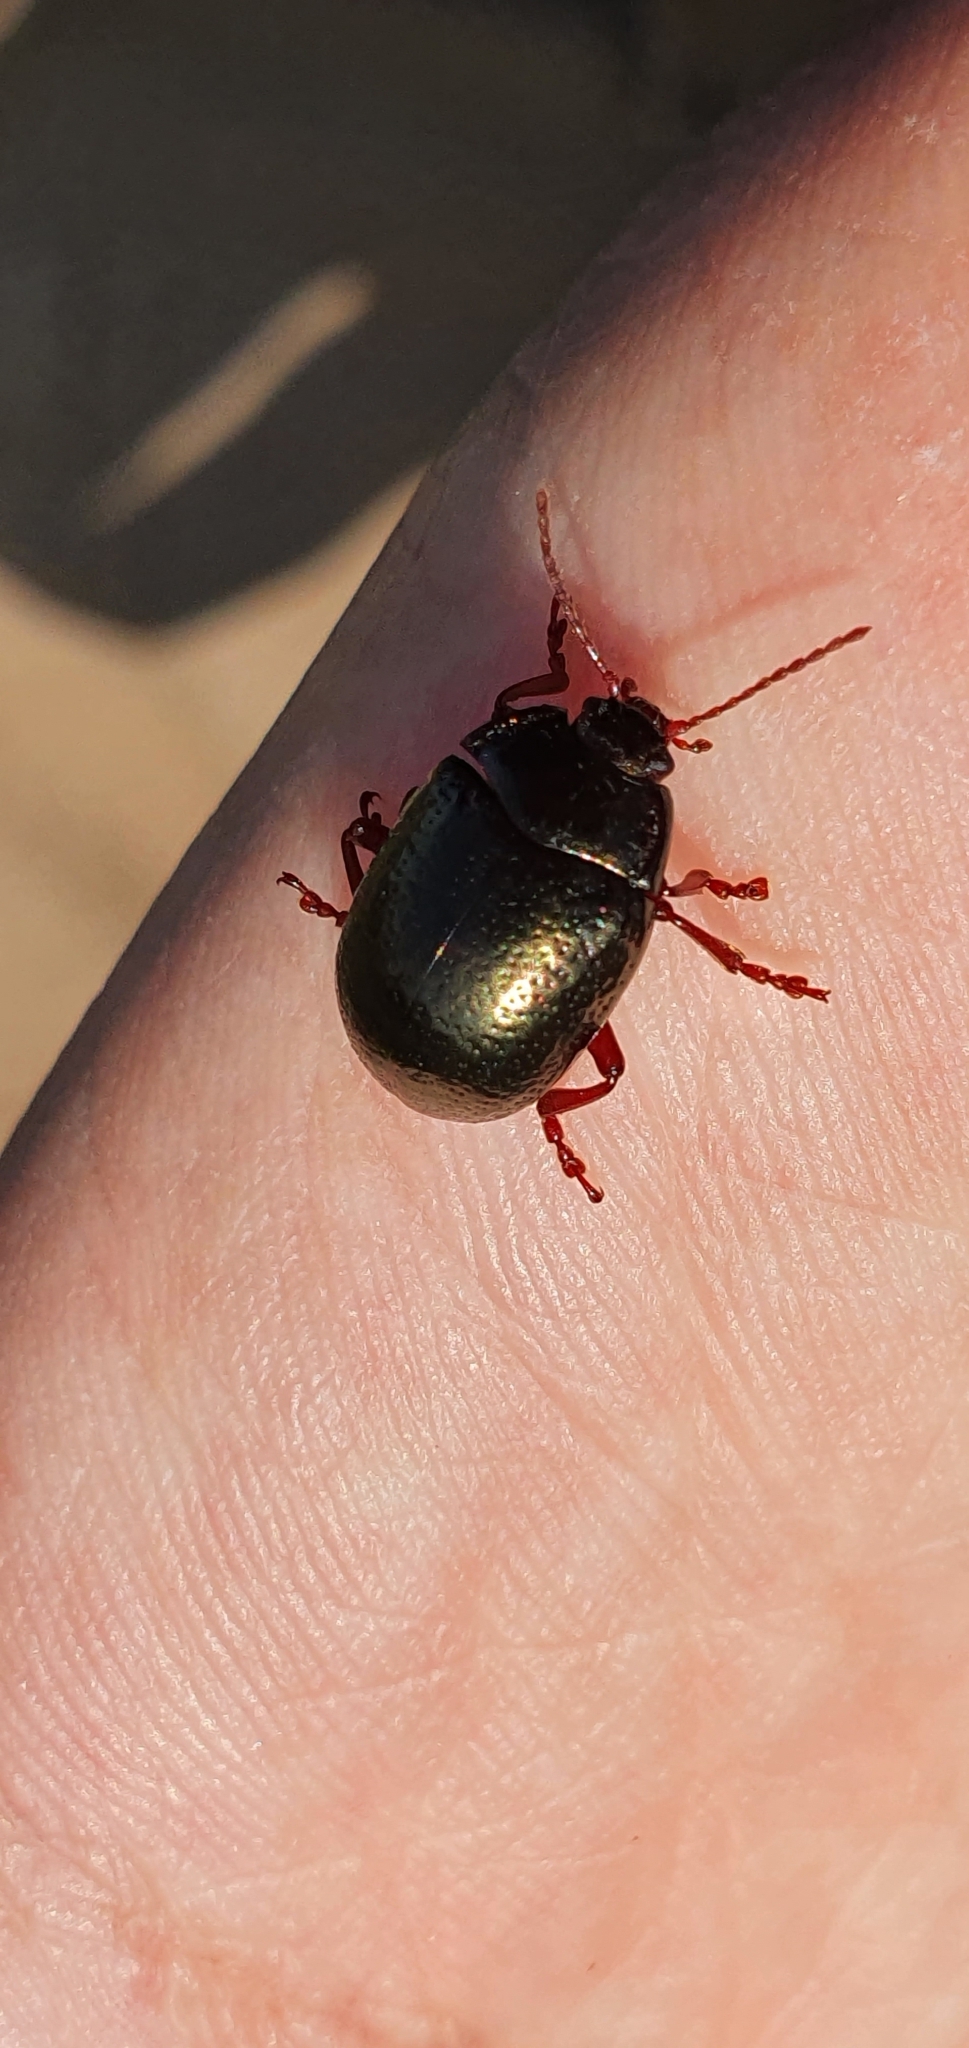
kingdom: Animalia
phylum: Arthropoda
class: Insecta
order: Coleoptera
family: Chrysomelidae
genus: Chrysolina
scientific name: Chrysolina bankii
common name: Leaf beetle
